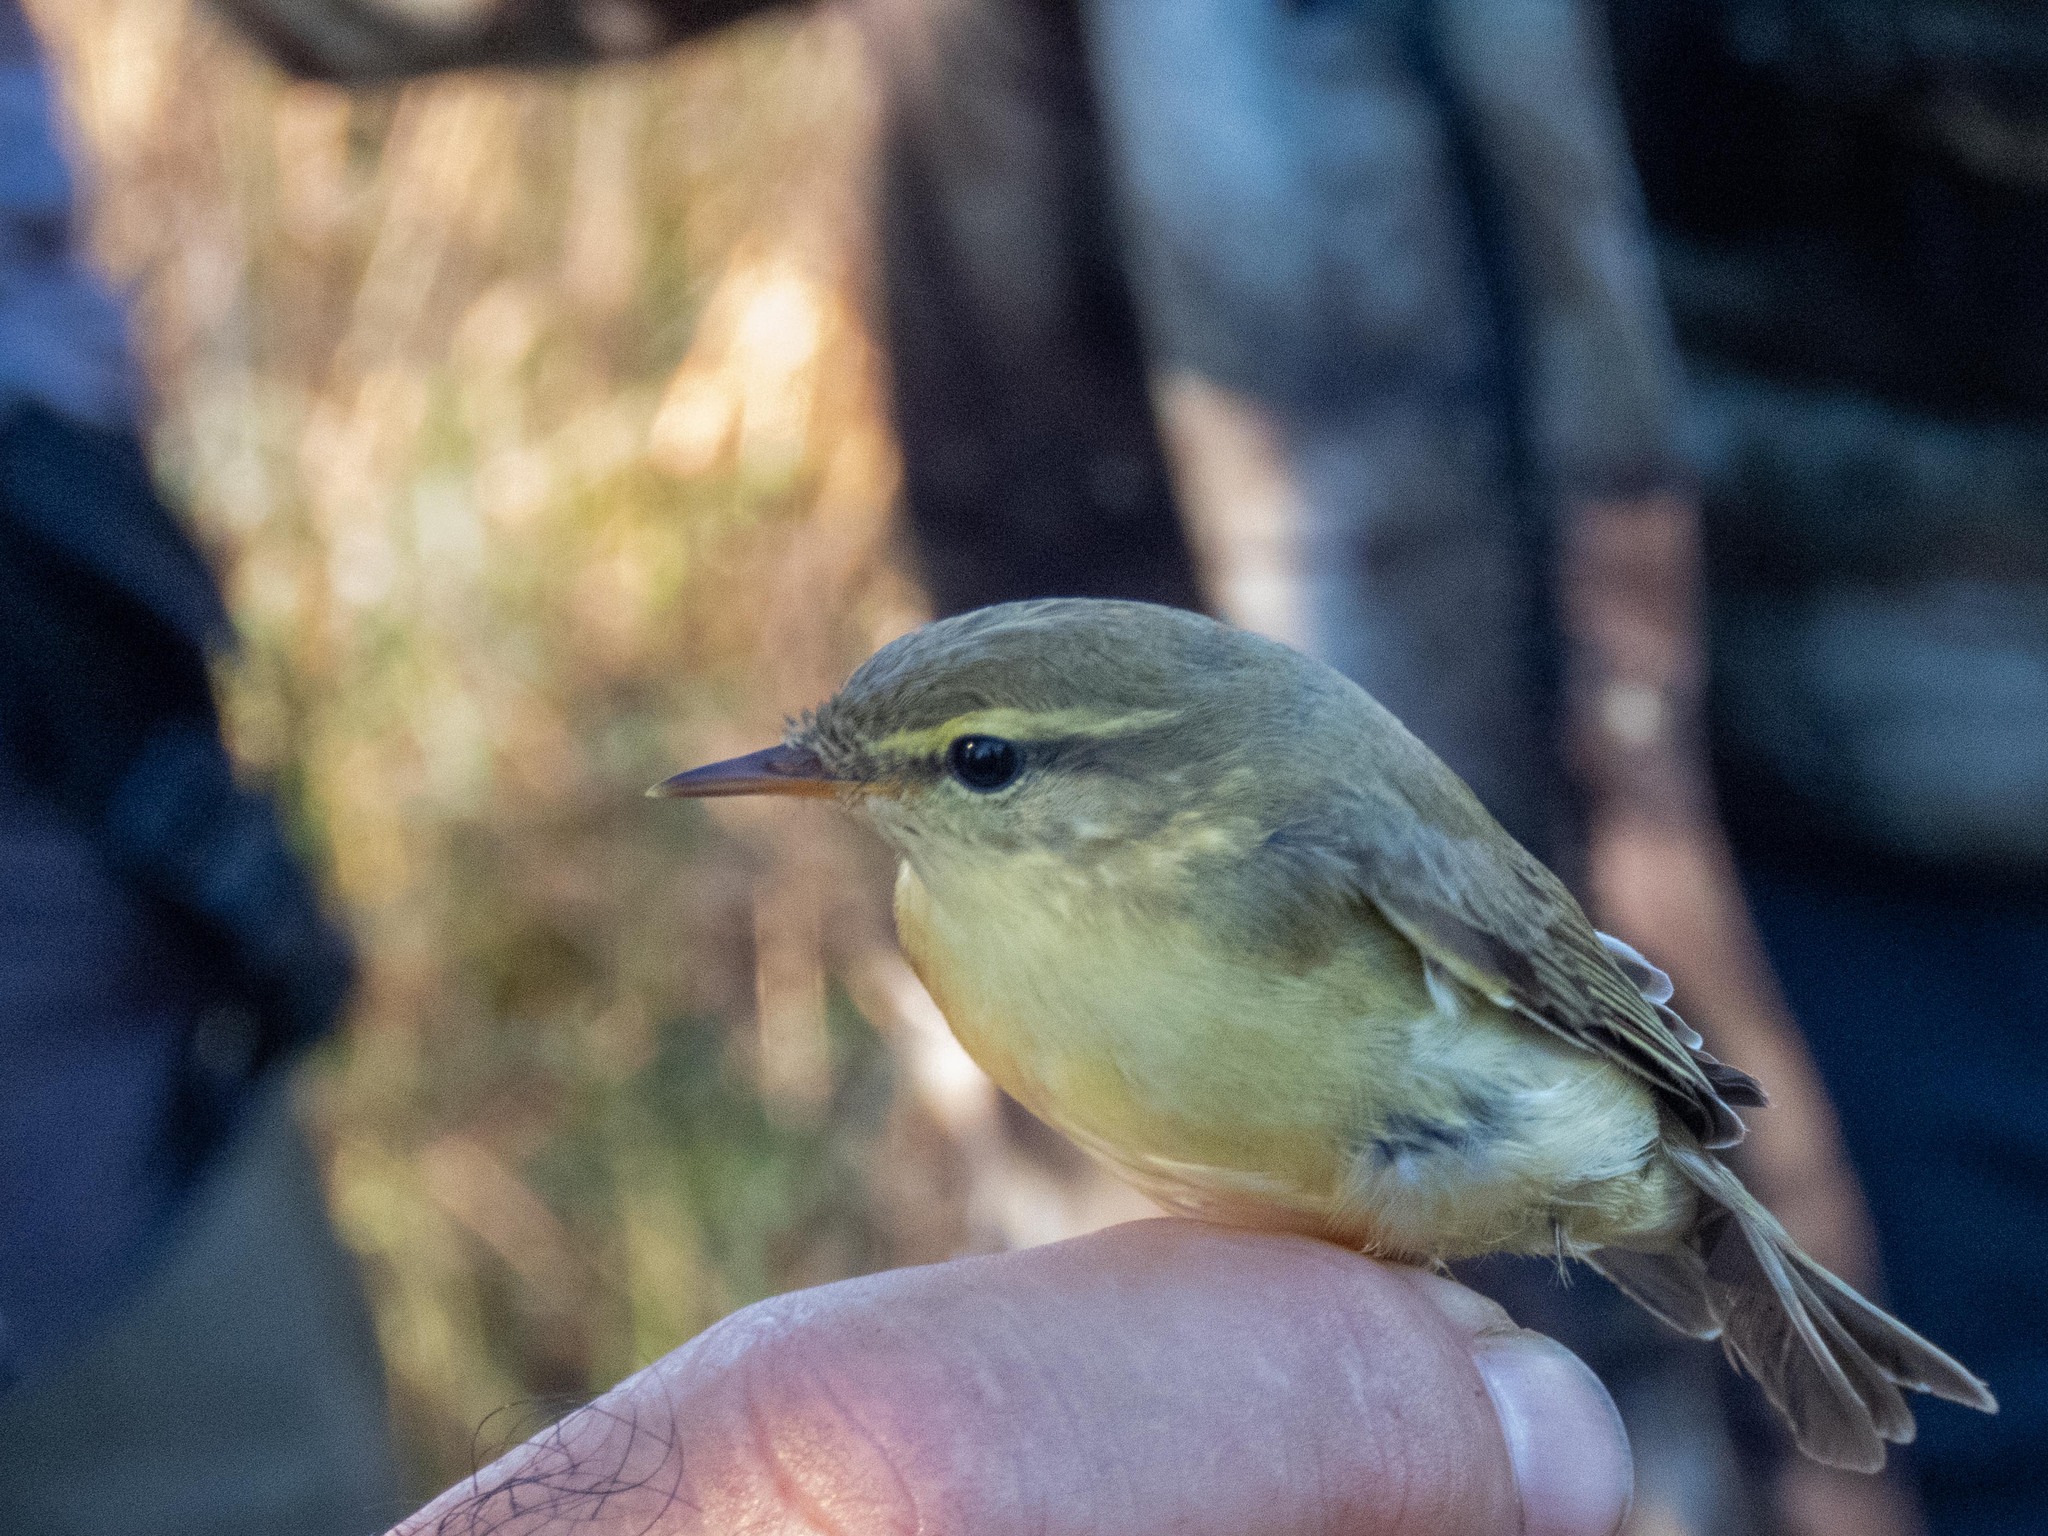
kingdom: Animalia
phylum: Chordata
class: Aves
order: Passeriformes
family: Phylloscopidae
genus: Phylloscopus
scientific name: Phylloscopus trochilus
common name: Willow warbler
